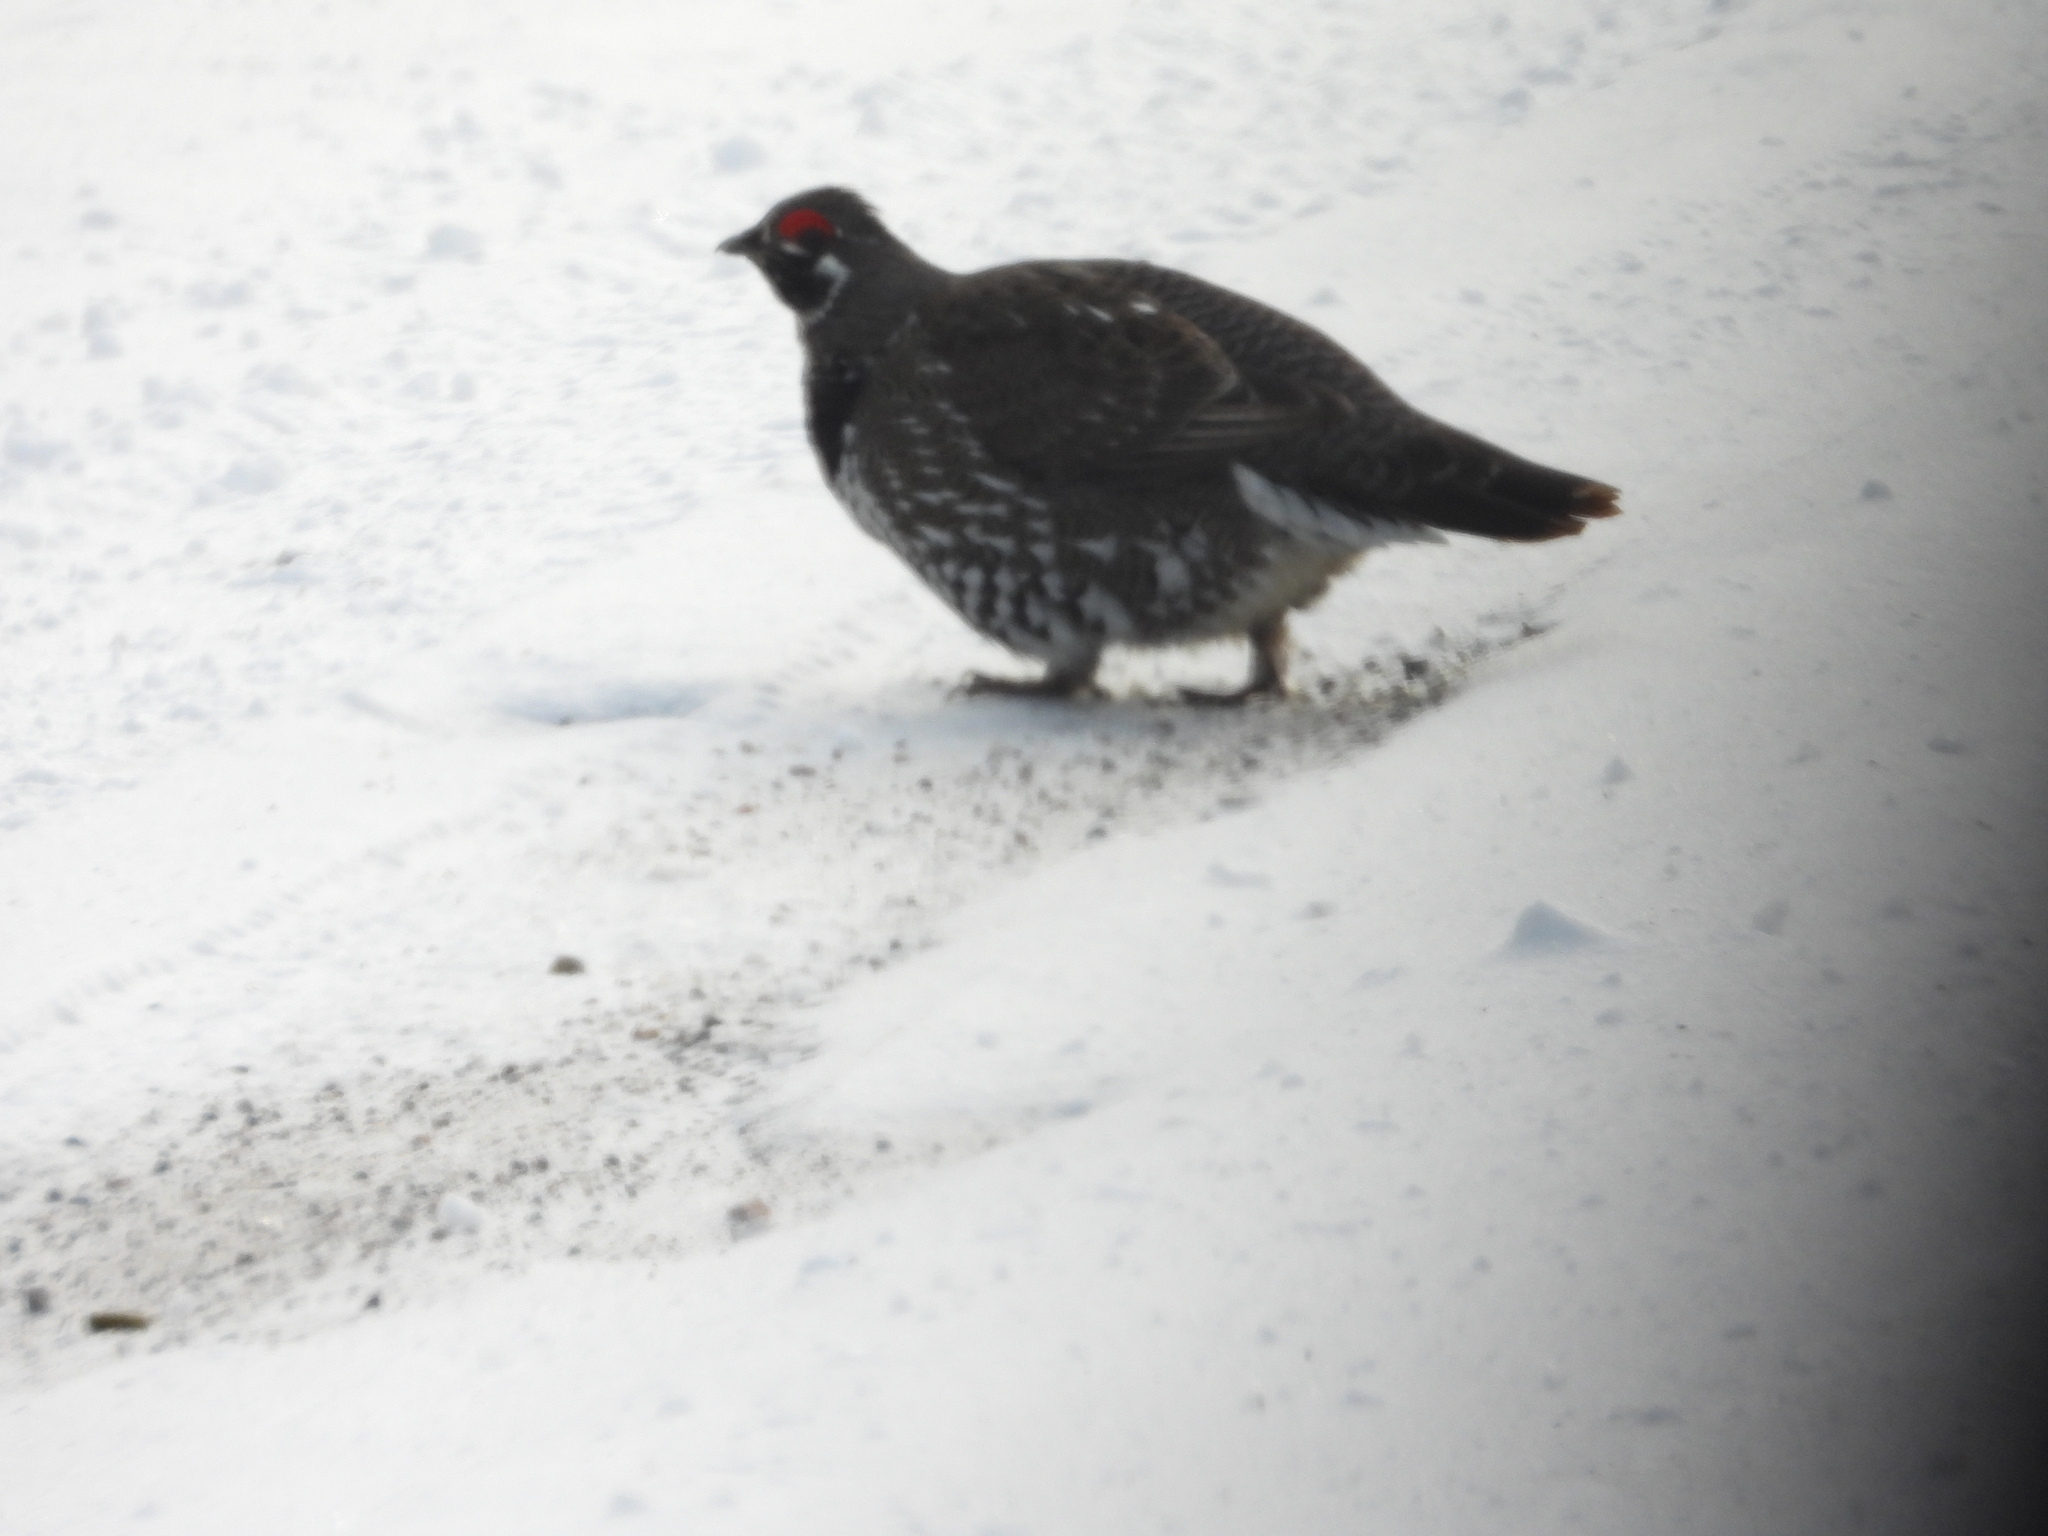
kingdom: Animalia
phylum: Chordata
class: Aves
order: Galliformes
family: Phasianidae
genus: Canachites
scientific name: Canachites canadensis
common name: Spruce grouse
